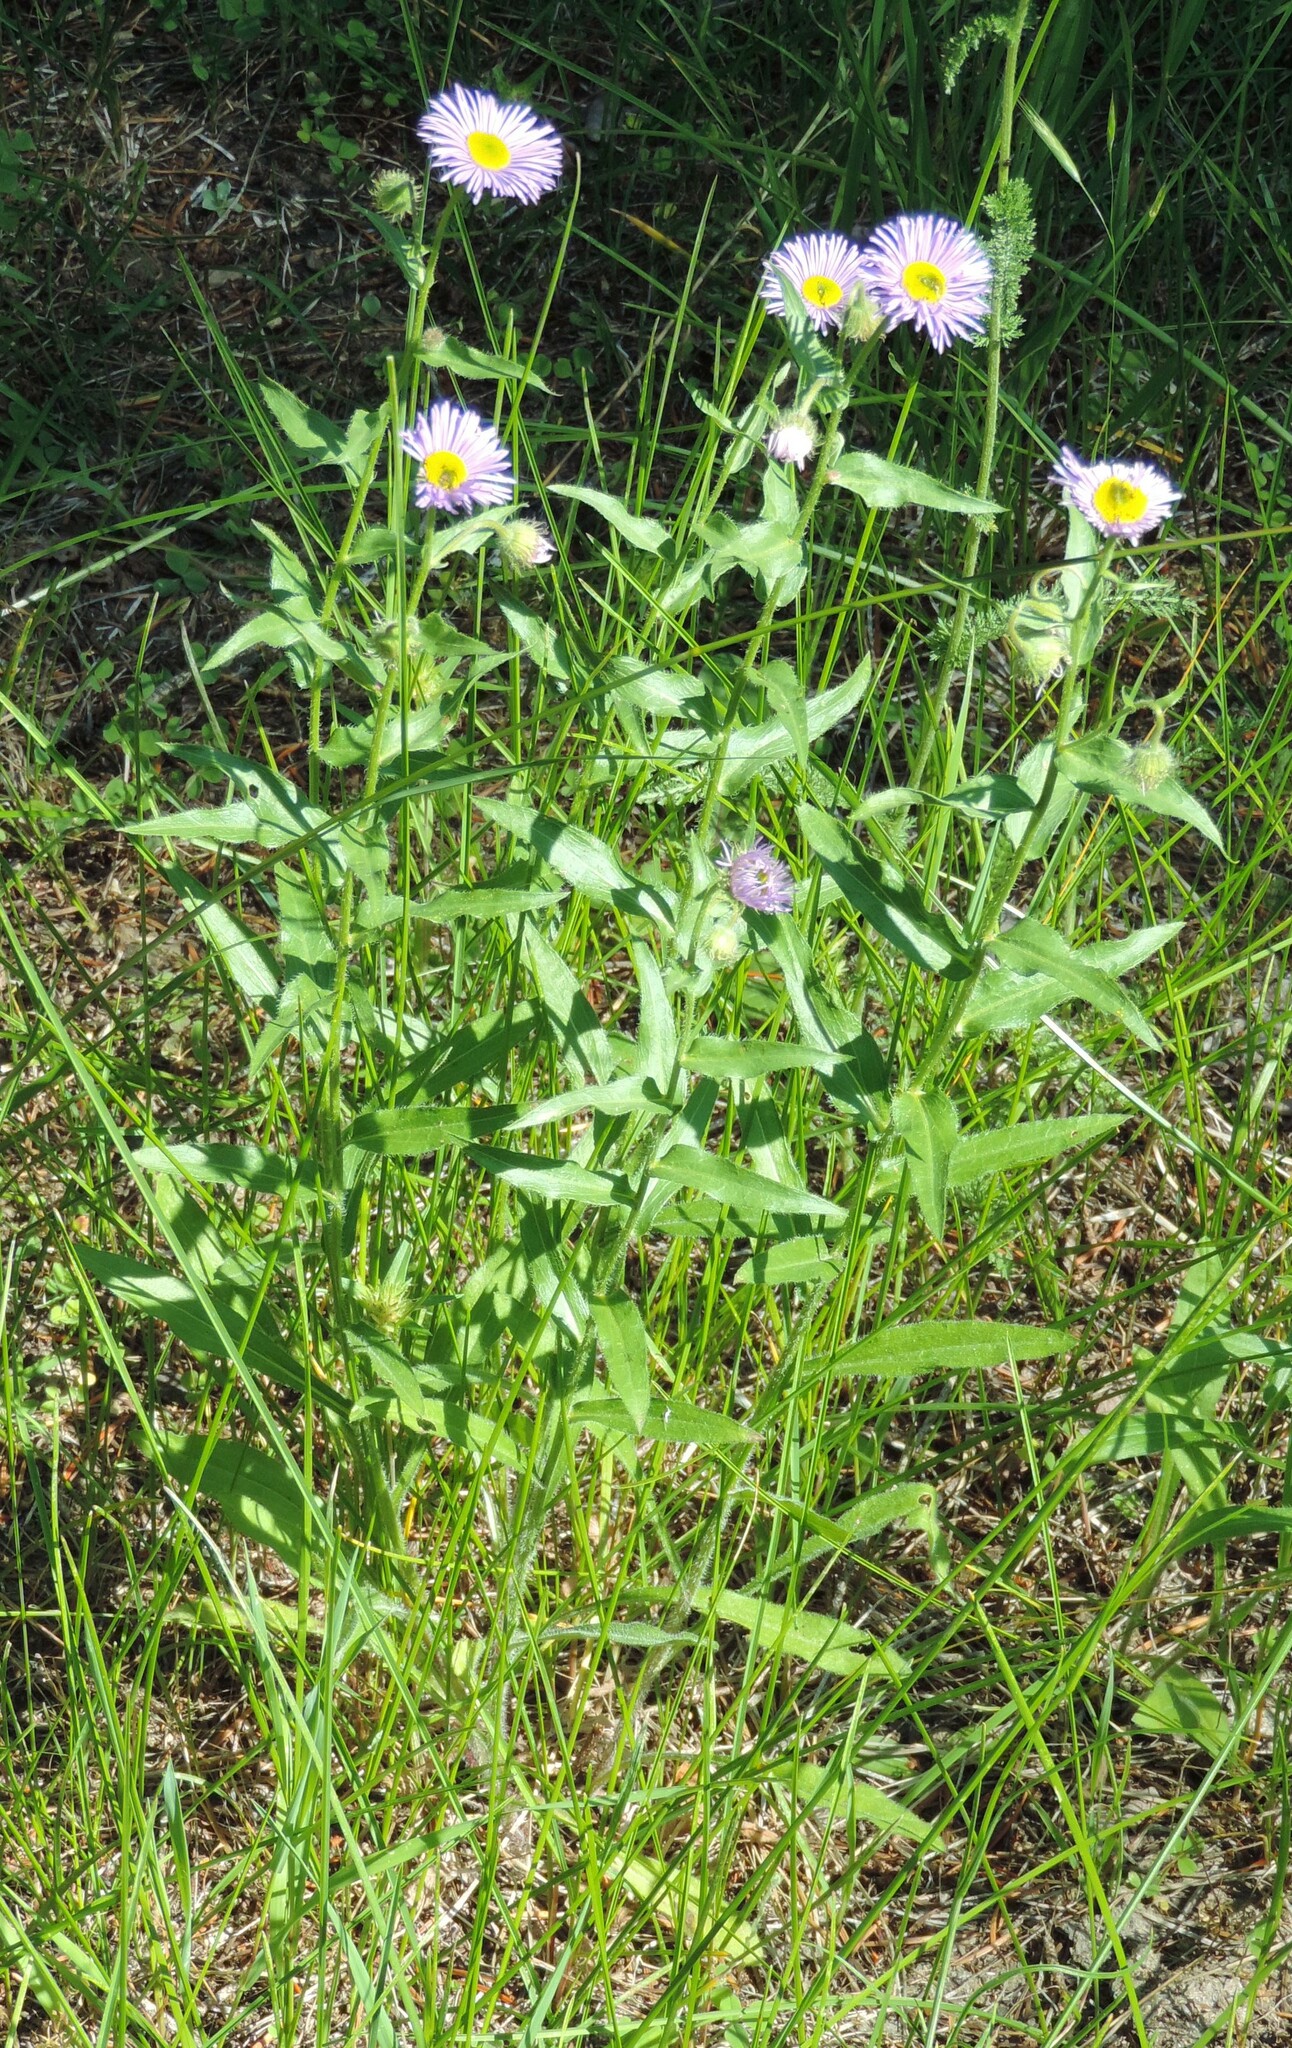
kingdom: Plantae
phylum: Tracheophyta
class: Magnoliopsida
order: Asterales
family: Asteraceae
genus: Erigeron
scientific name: Erigeron speciosus
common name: Aspen fleabane
